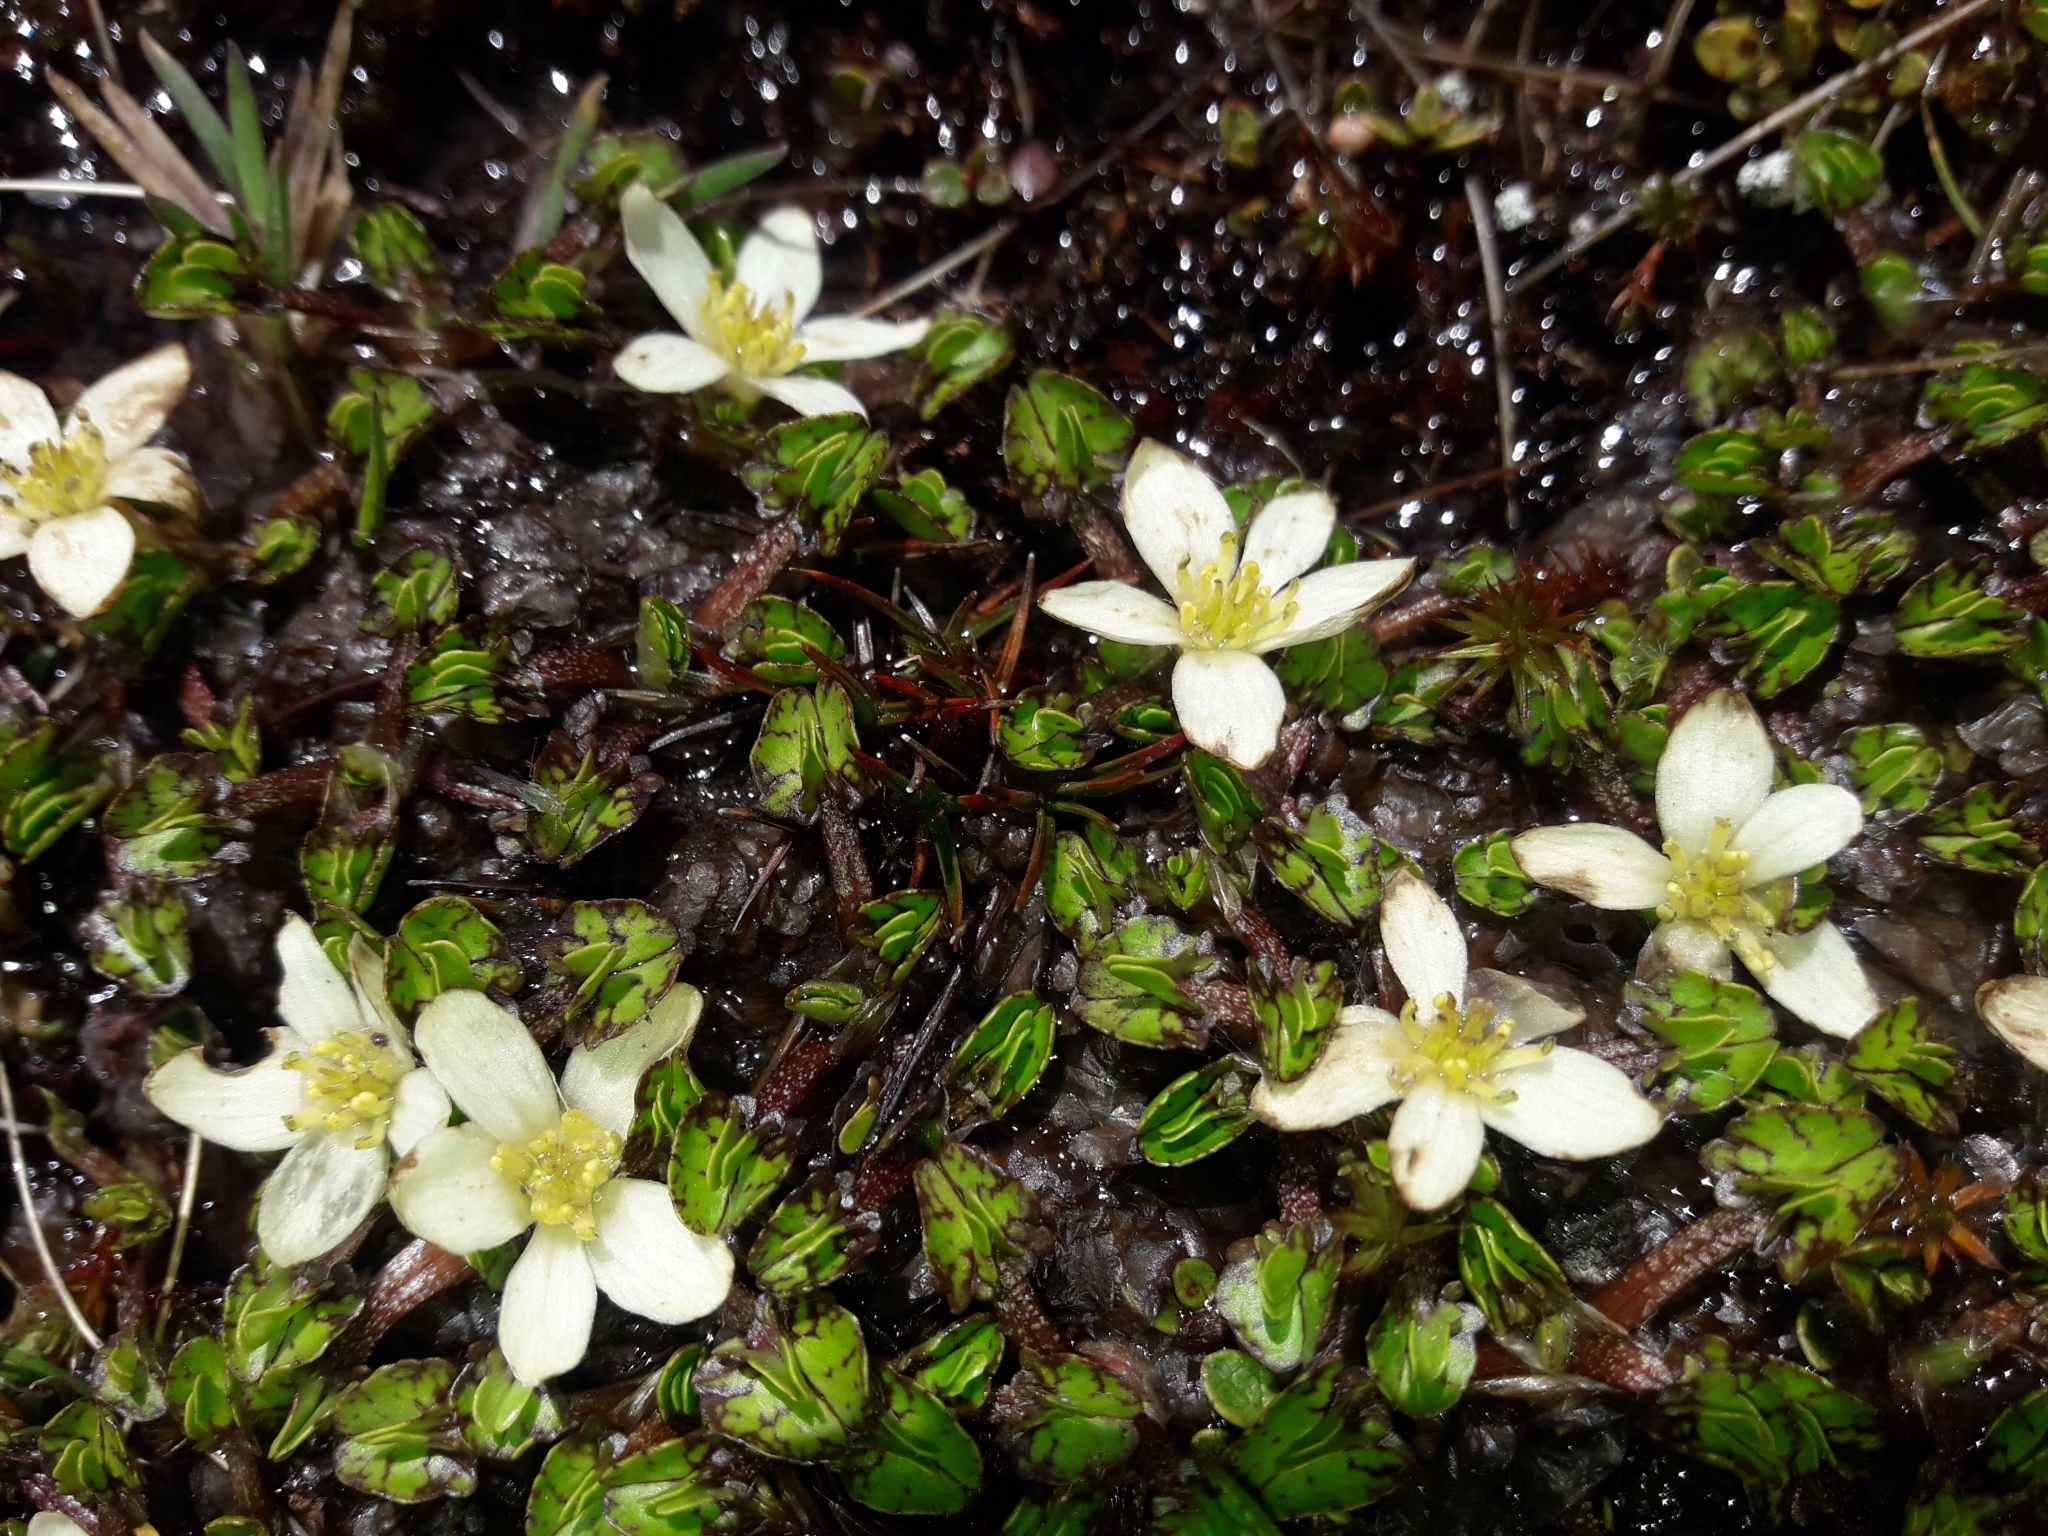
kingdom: Plantae
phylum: Tracheophyta
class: Magnoliopsida
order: Ranunculales
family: Ranunculaceae
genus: Caltha
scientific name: Caltha obtusa
